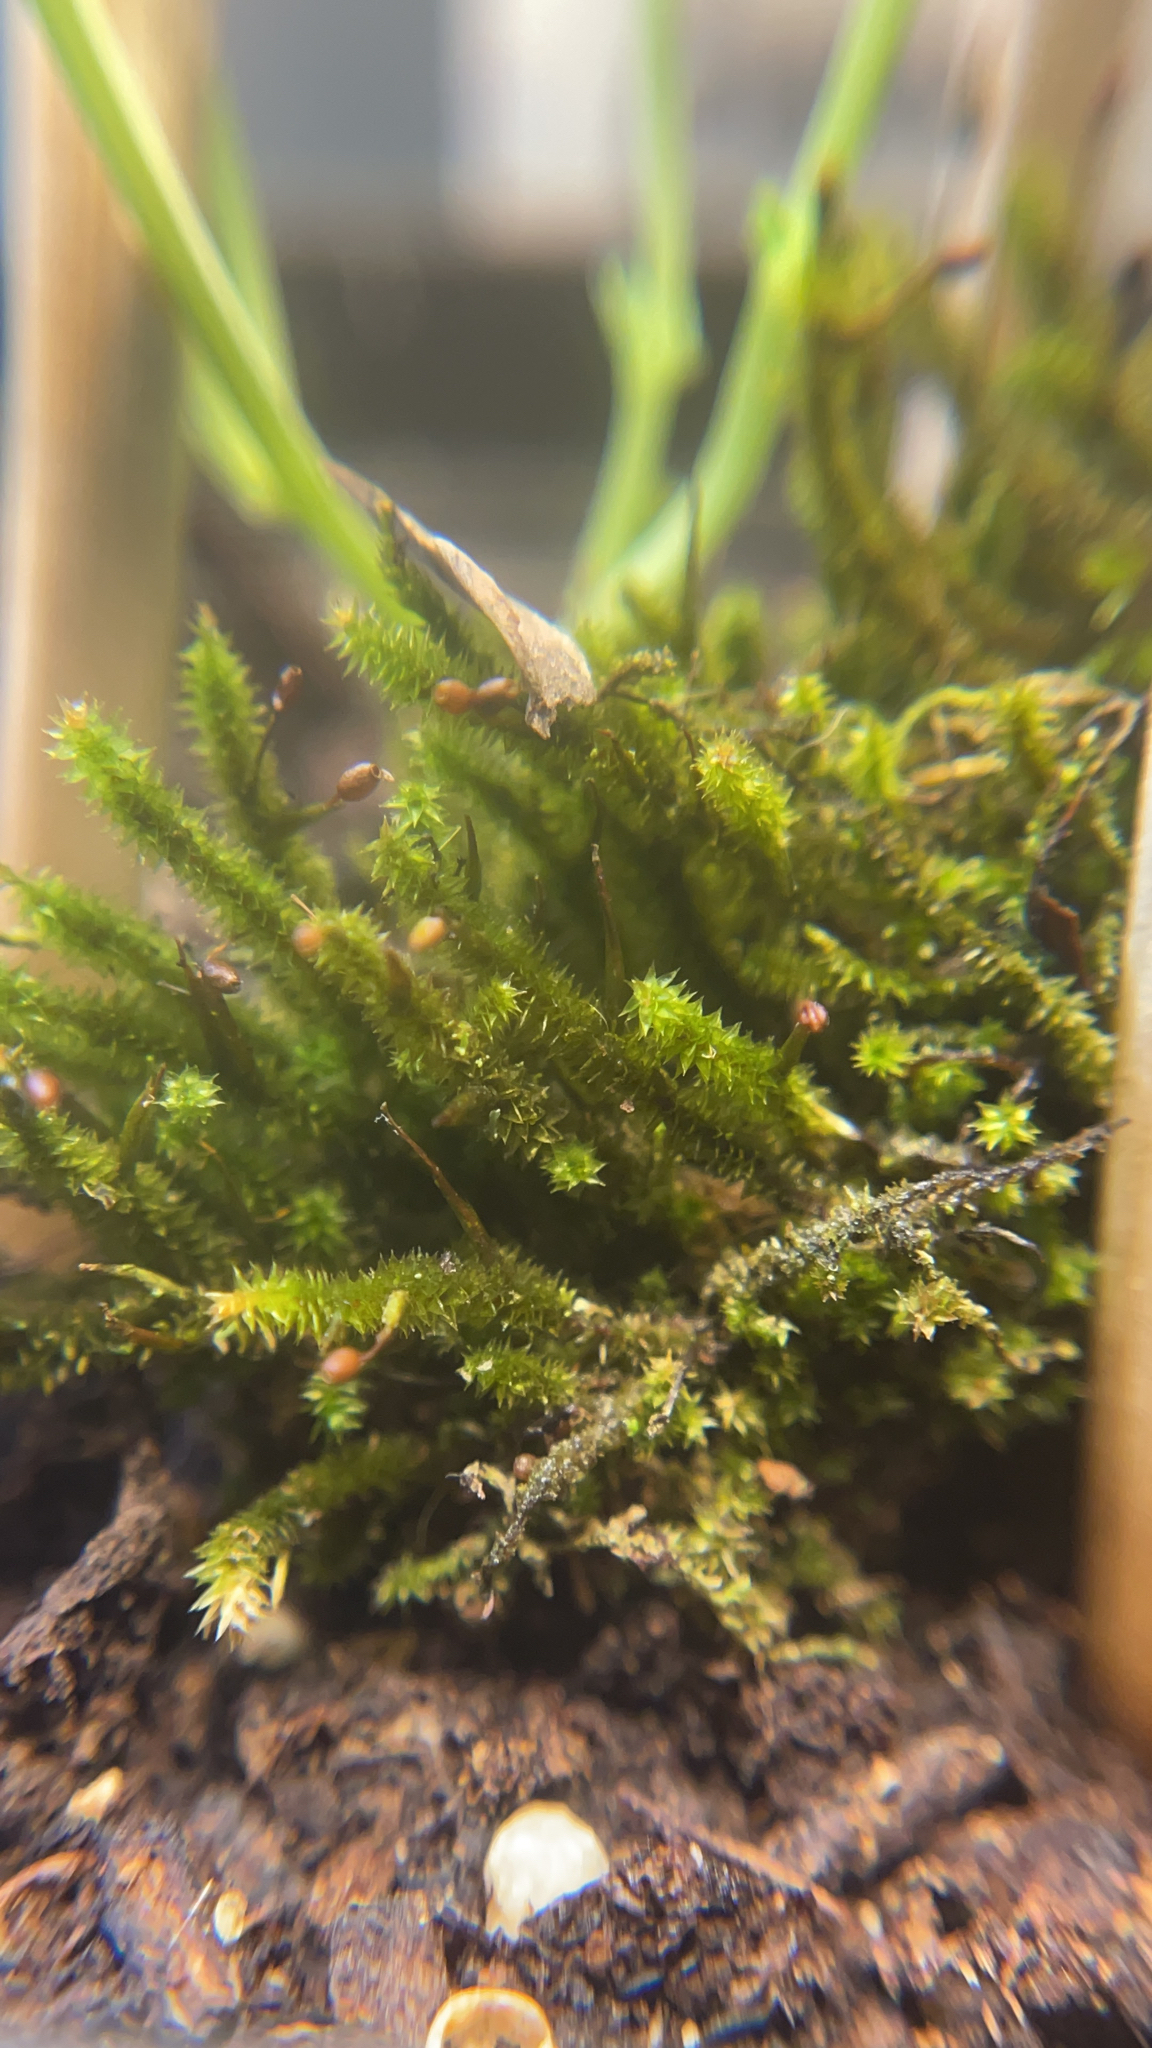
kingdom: Plantae
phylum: Bryophyta
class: Bryopsida
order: Hypnales
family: Leucodontaceae
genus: Leucodon
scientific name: Leucodon julaceus
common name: Smooth hook moss
